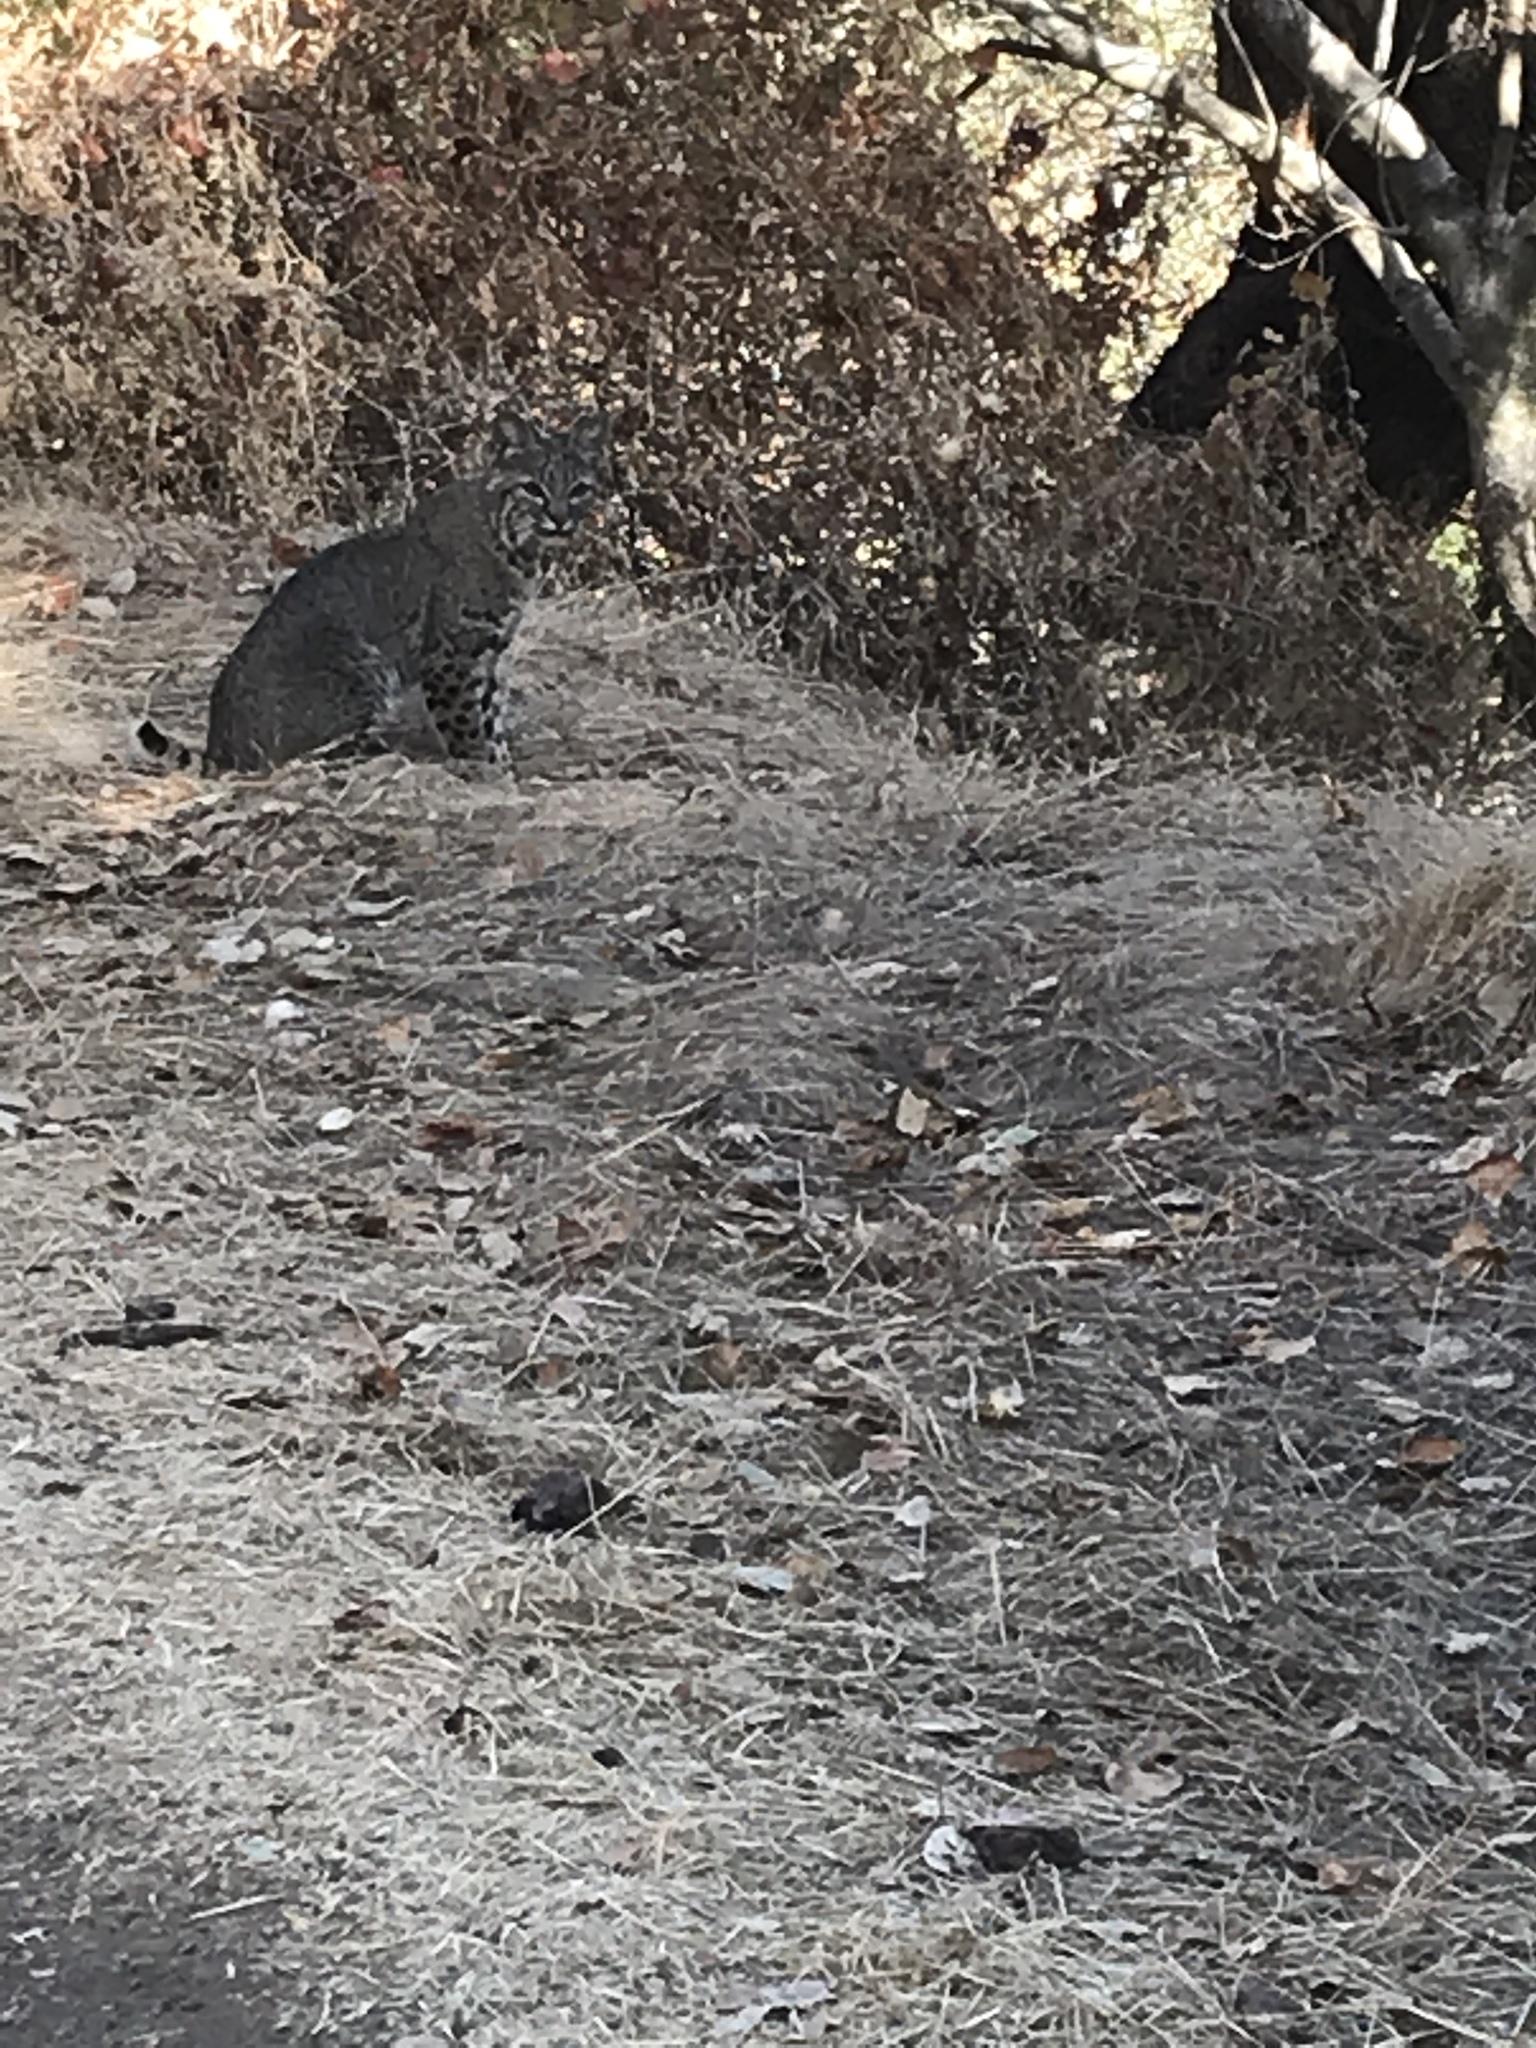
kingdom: Animalia
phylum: Chordata
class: Mammalia
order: Carnivora
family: Felidae
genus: Lynx
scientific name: Lynx rufus
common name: Bobcat
